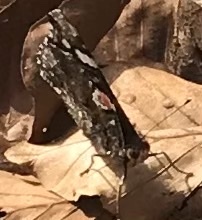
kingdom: Animalia
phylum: Arthropoda
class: Insecta
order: Lepidoptera
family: Nymphalidae
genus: Vanessa
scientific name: Vanessa atalanta
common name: Red admiral
